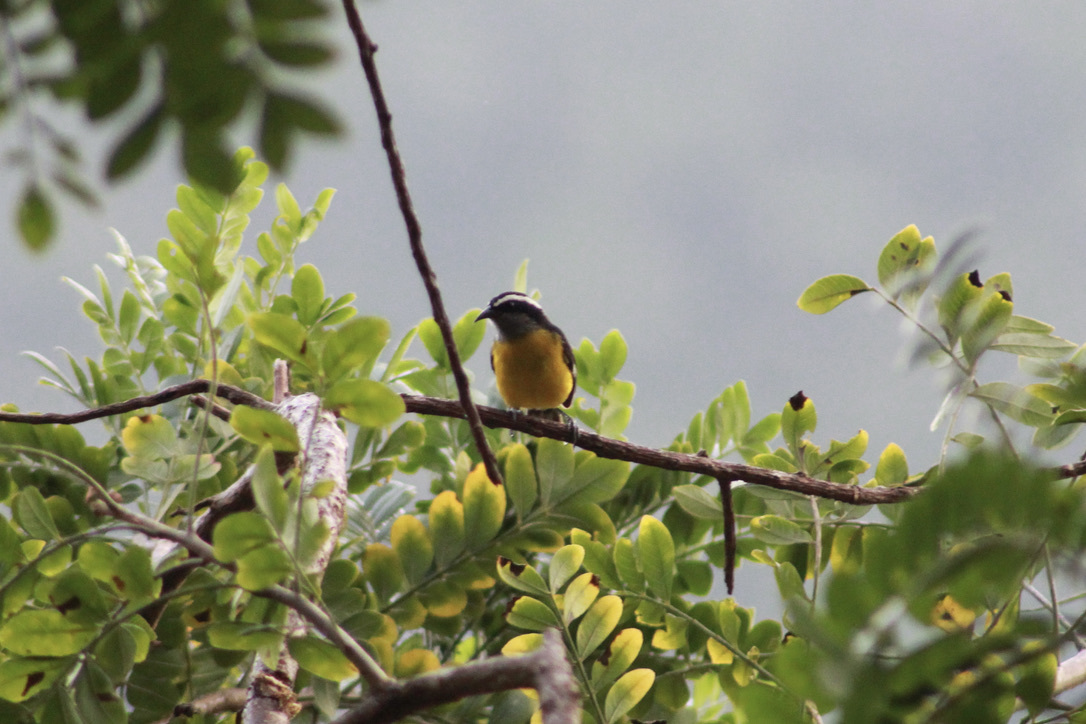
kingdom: Animalia
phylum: Chordata
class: Aves
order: Passeriformes
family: Thraupidae
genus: Coereba
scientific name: Coereba flaveola
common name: Bananaquit
